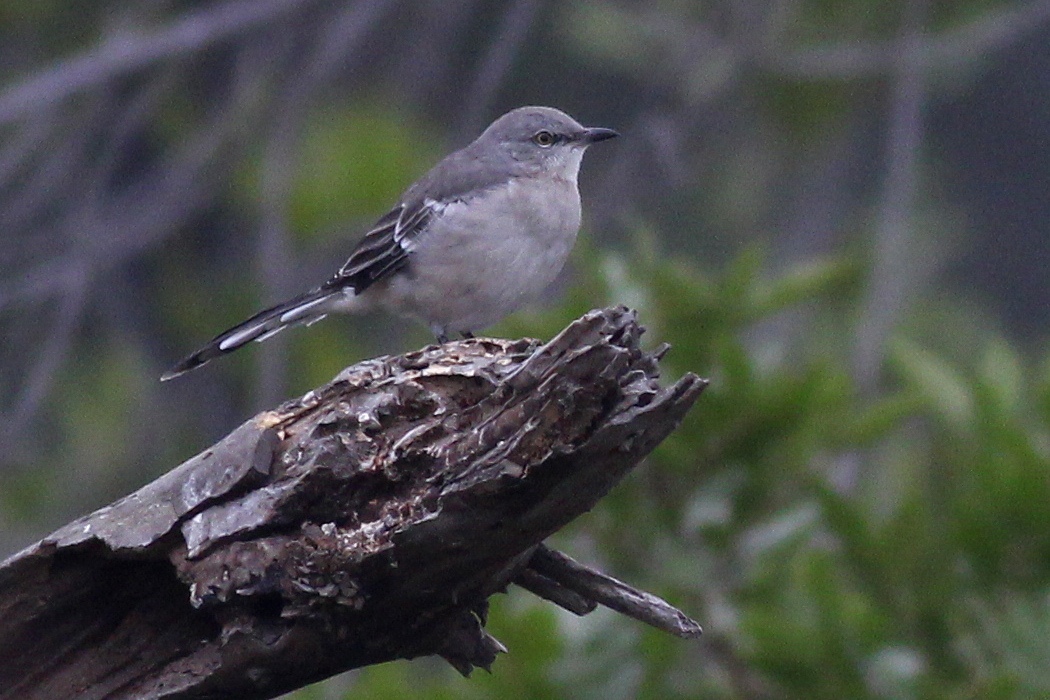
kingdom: Animalia
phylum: Chordata
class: Aves
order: Passeriformes
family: Mimidae
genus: Mimus
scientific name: Mimus polyglottos
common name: Northern mockingbird
